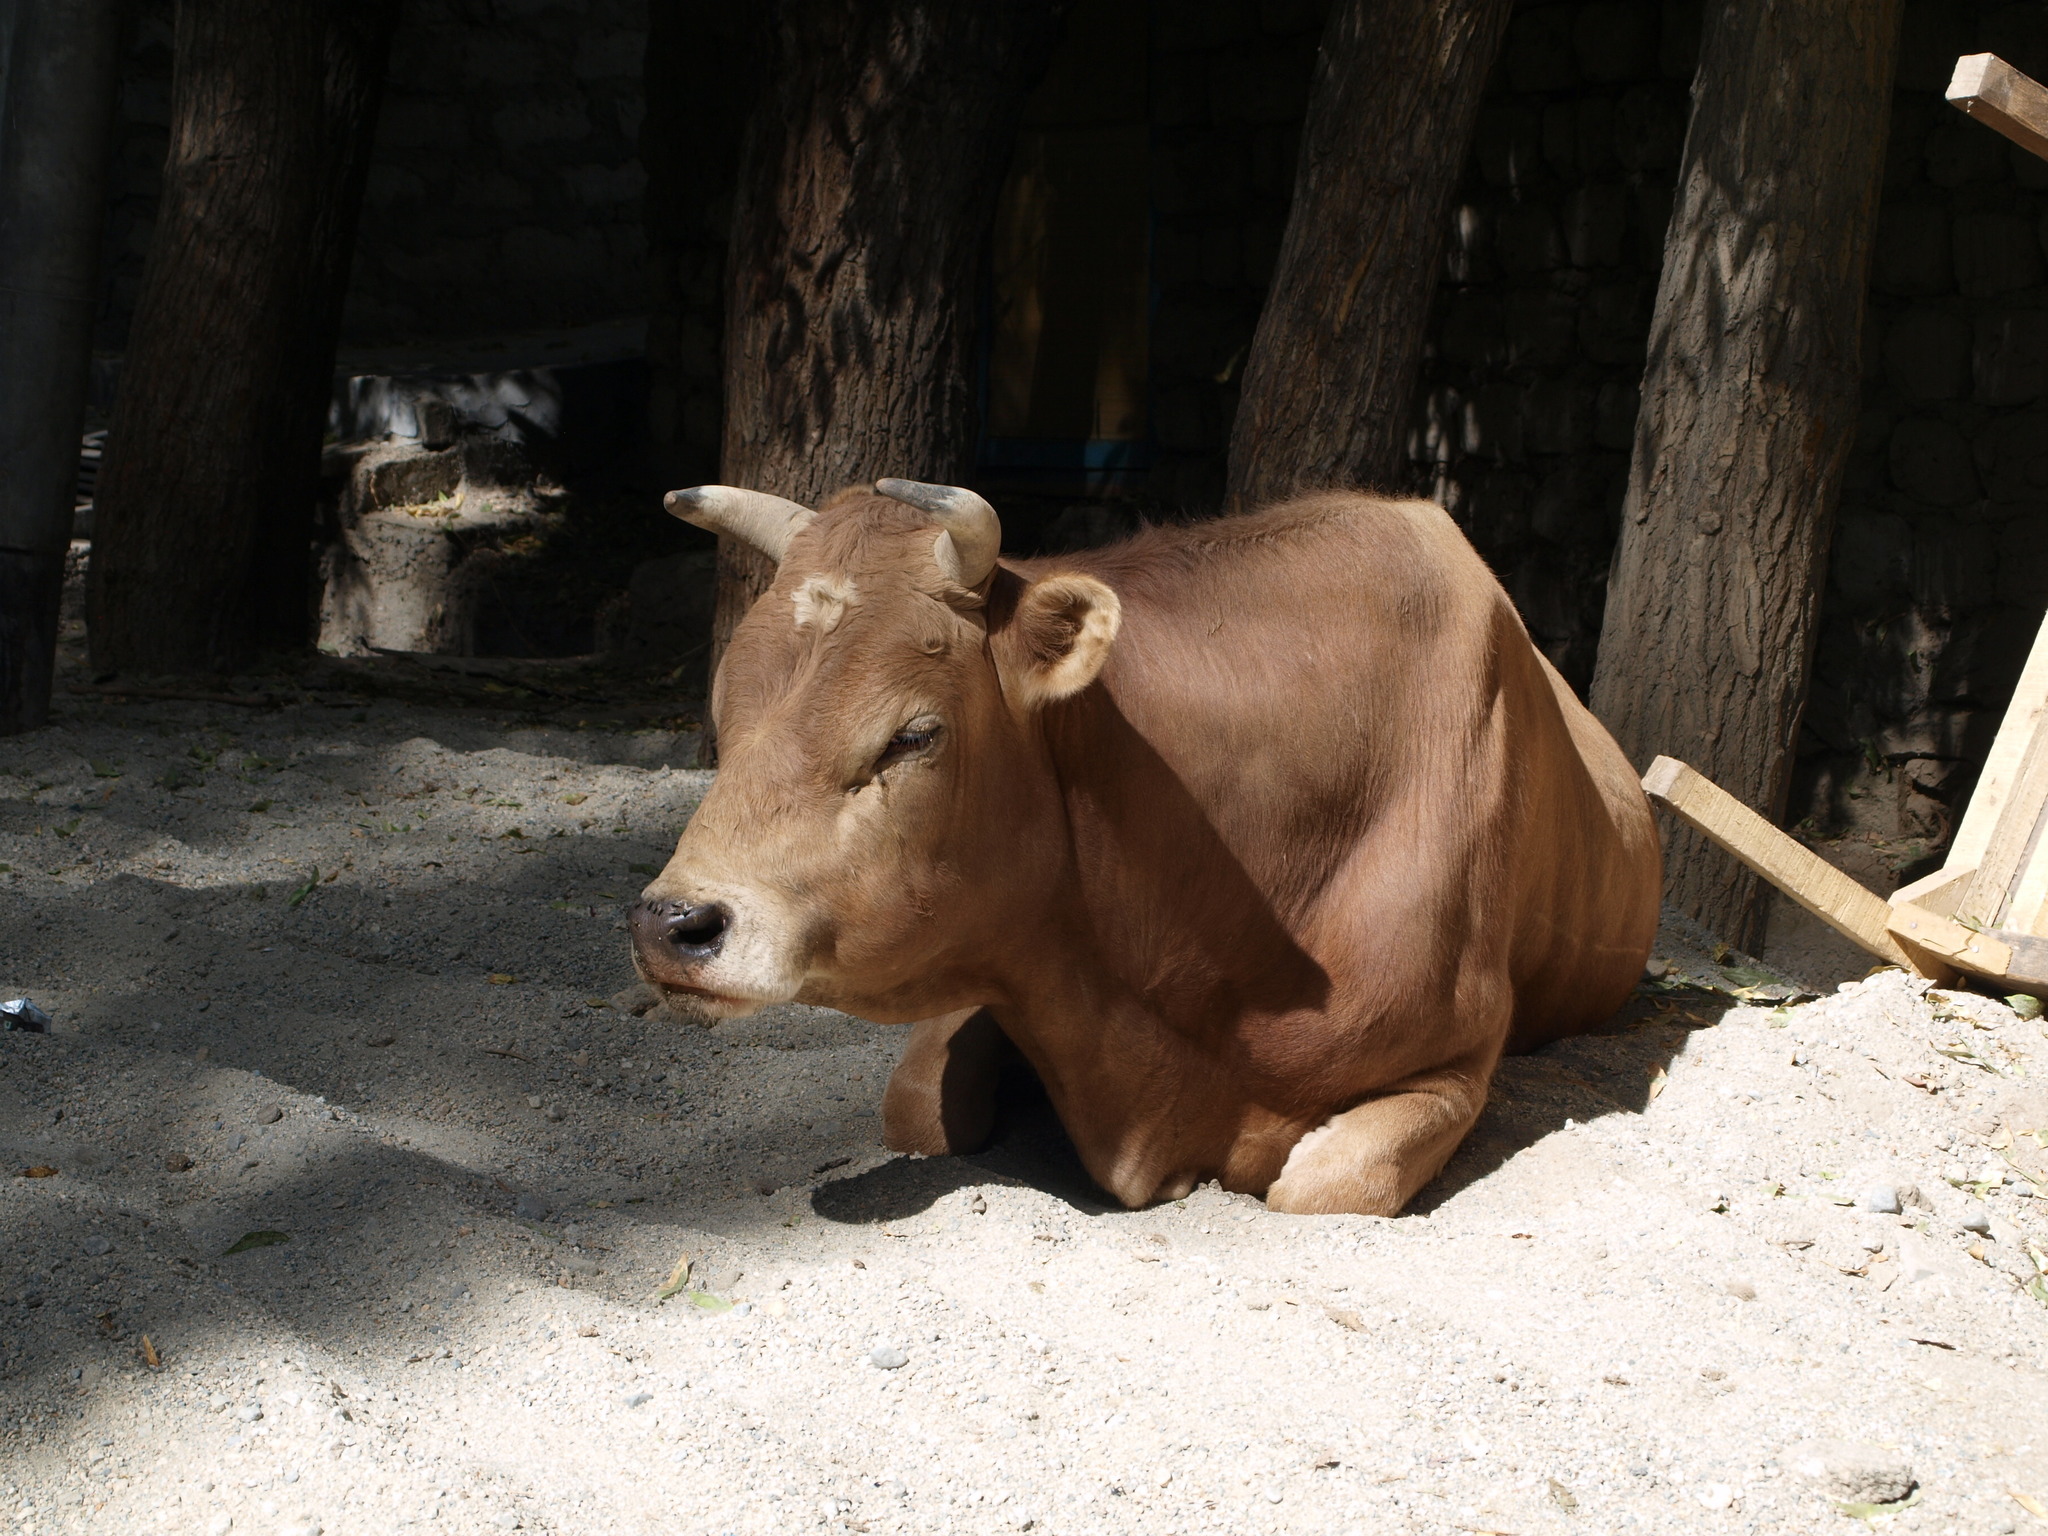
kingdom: Animalia
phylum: Chordata
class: Mammalia
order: Artiodactyla
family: Bovidae
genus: Bos
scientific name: Bos taurus
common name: Domesticated cattle
